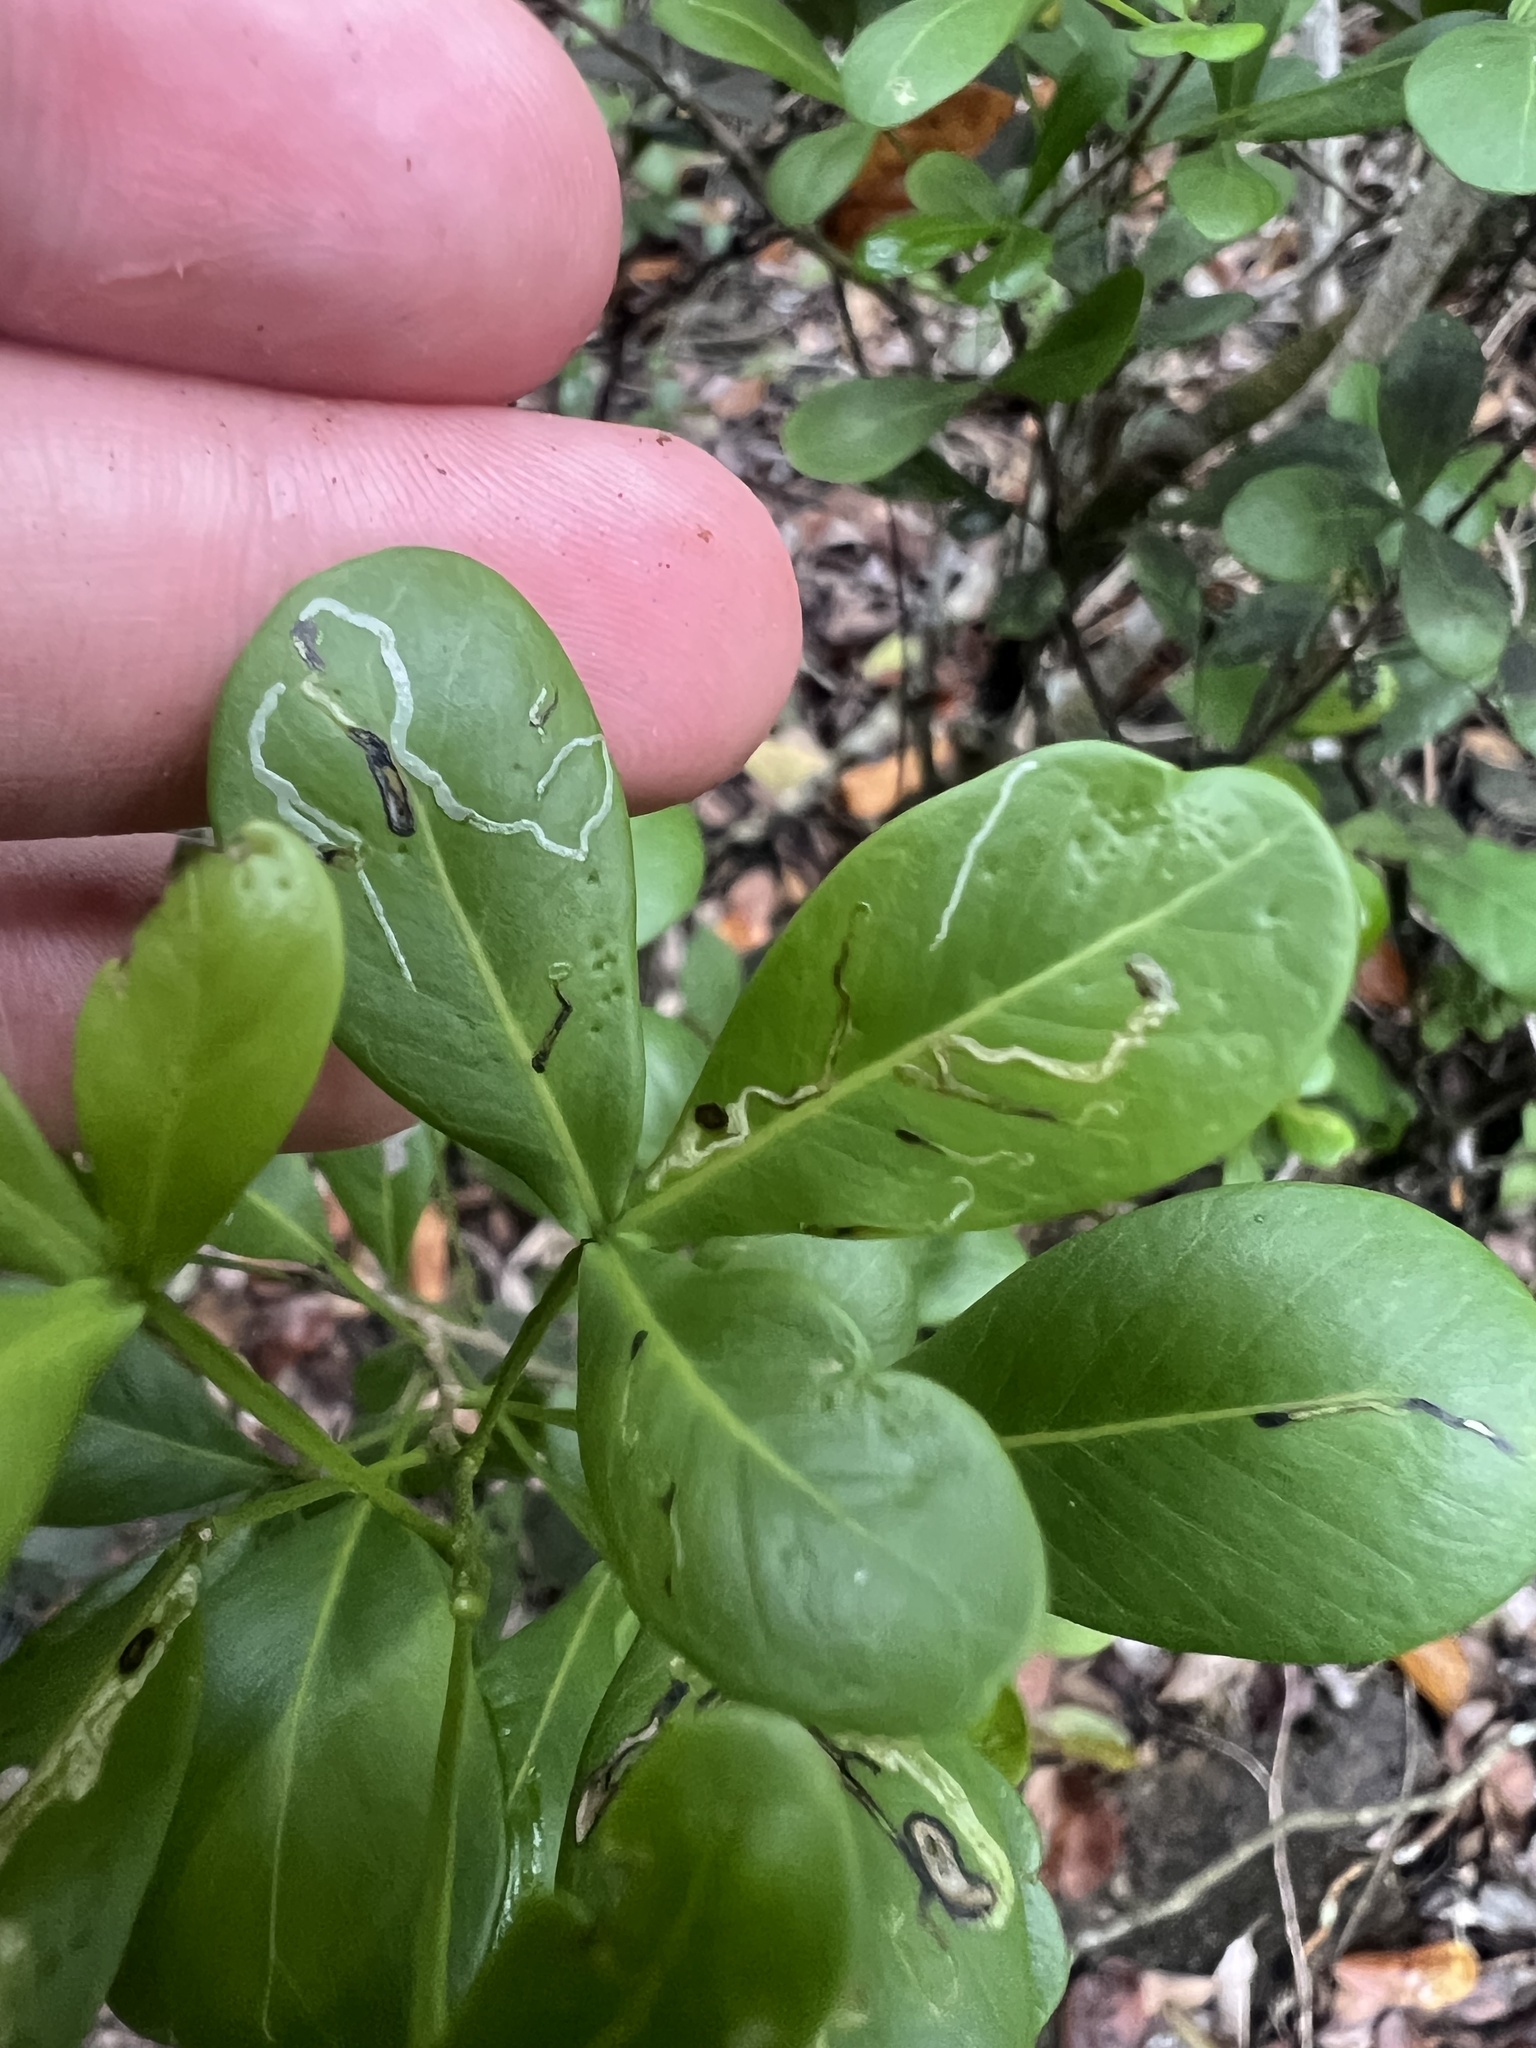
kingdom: Plantae
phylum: Tracheophyta
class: Magnoliopsida
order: Sapindales
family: Sapindaceae
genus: Hypelate
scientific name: Hypelate trifoliata
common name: Inkwood
